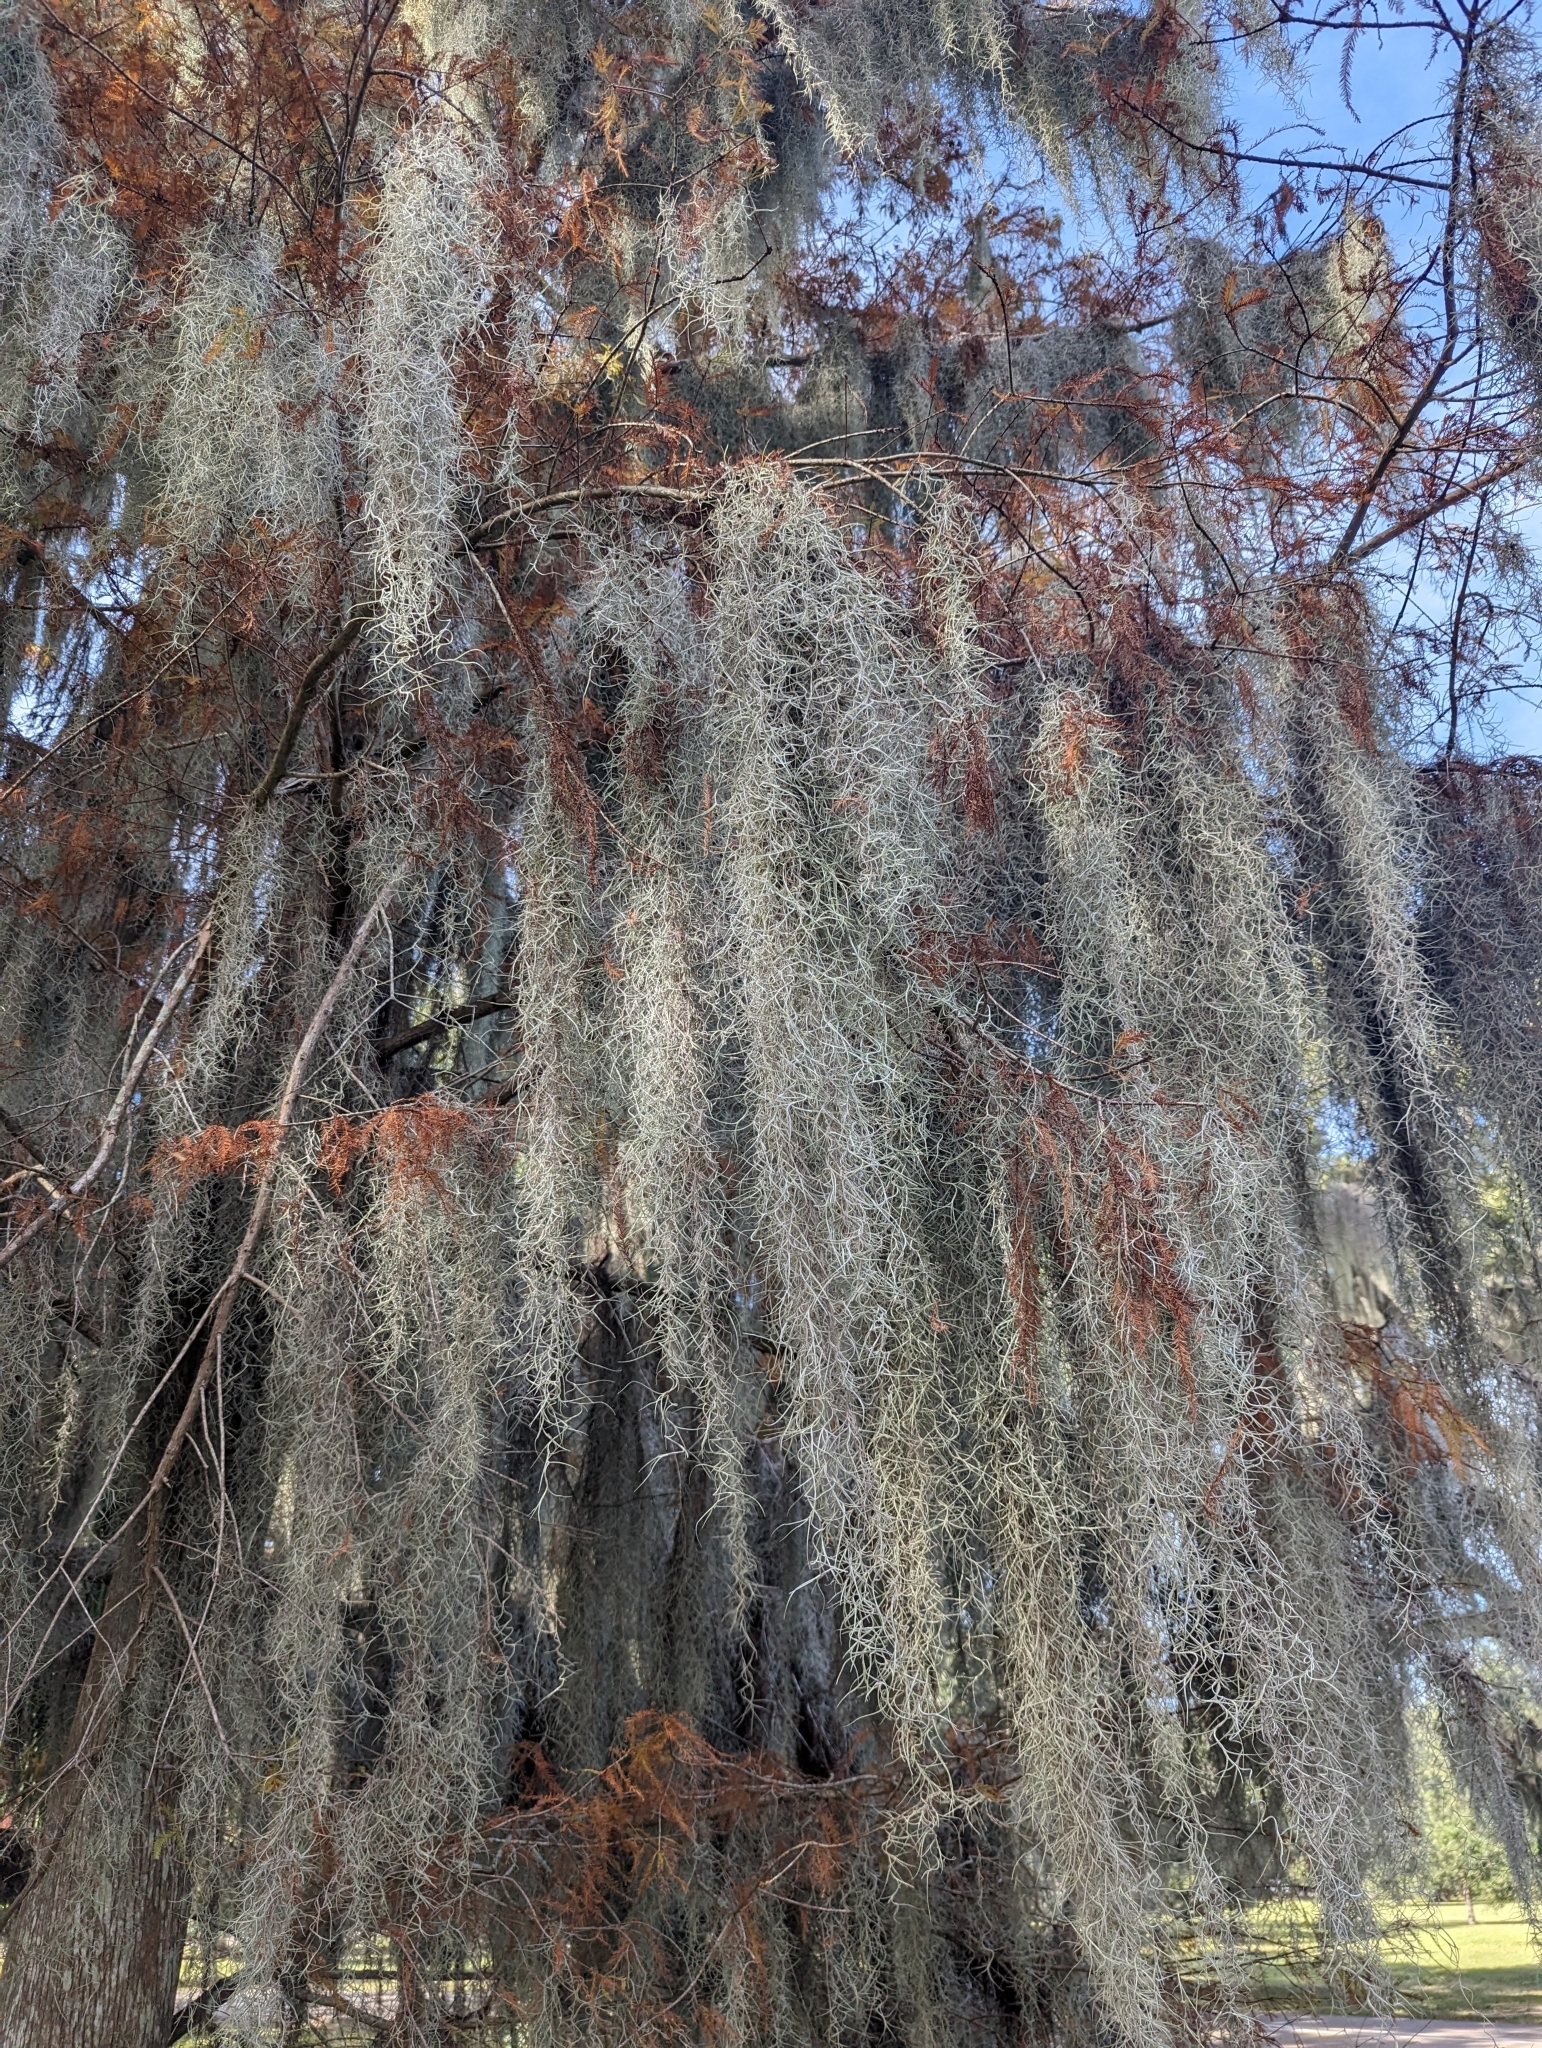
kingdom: Plantae
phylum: Tracheophyta
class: Liliopsida
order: Poales
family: Bromeliaceae
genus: Tillandsia
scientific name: Tillandsia usneoides
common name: Spanish moss
